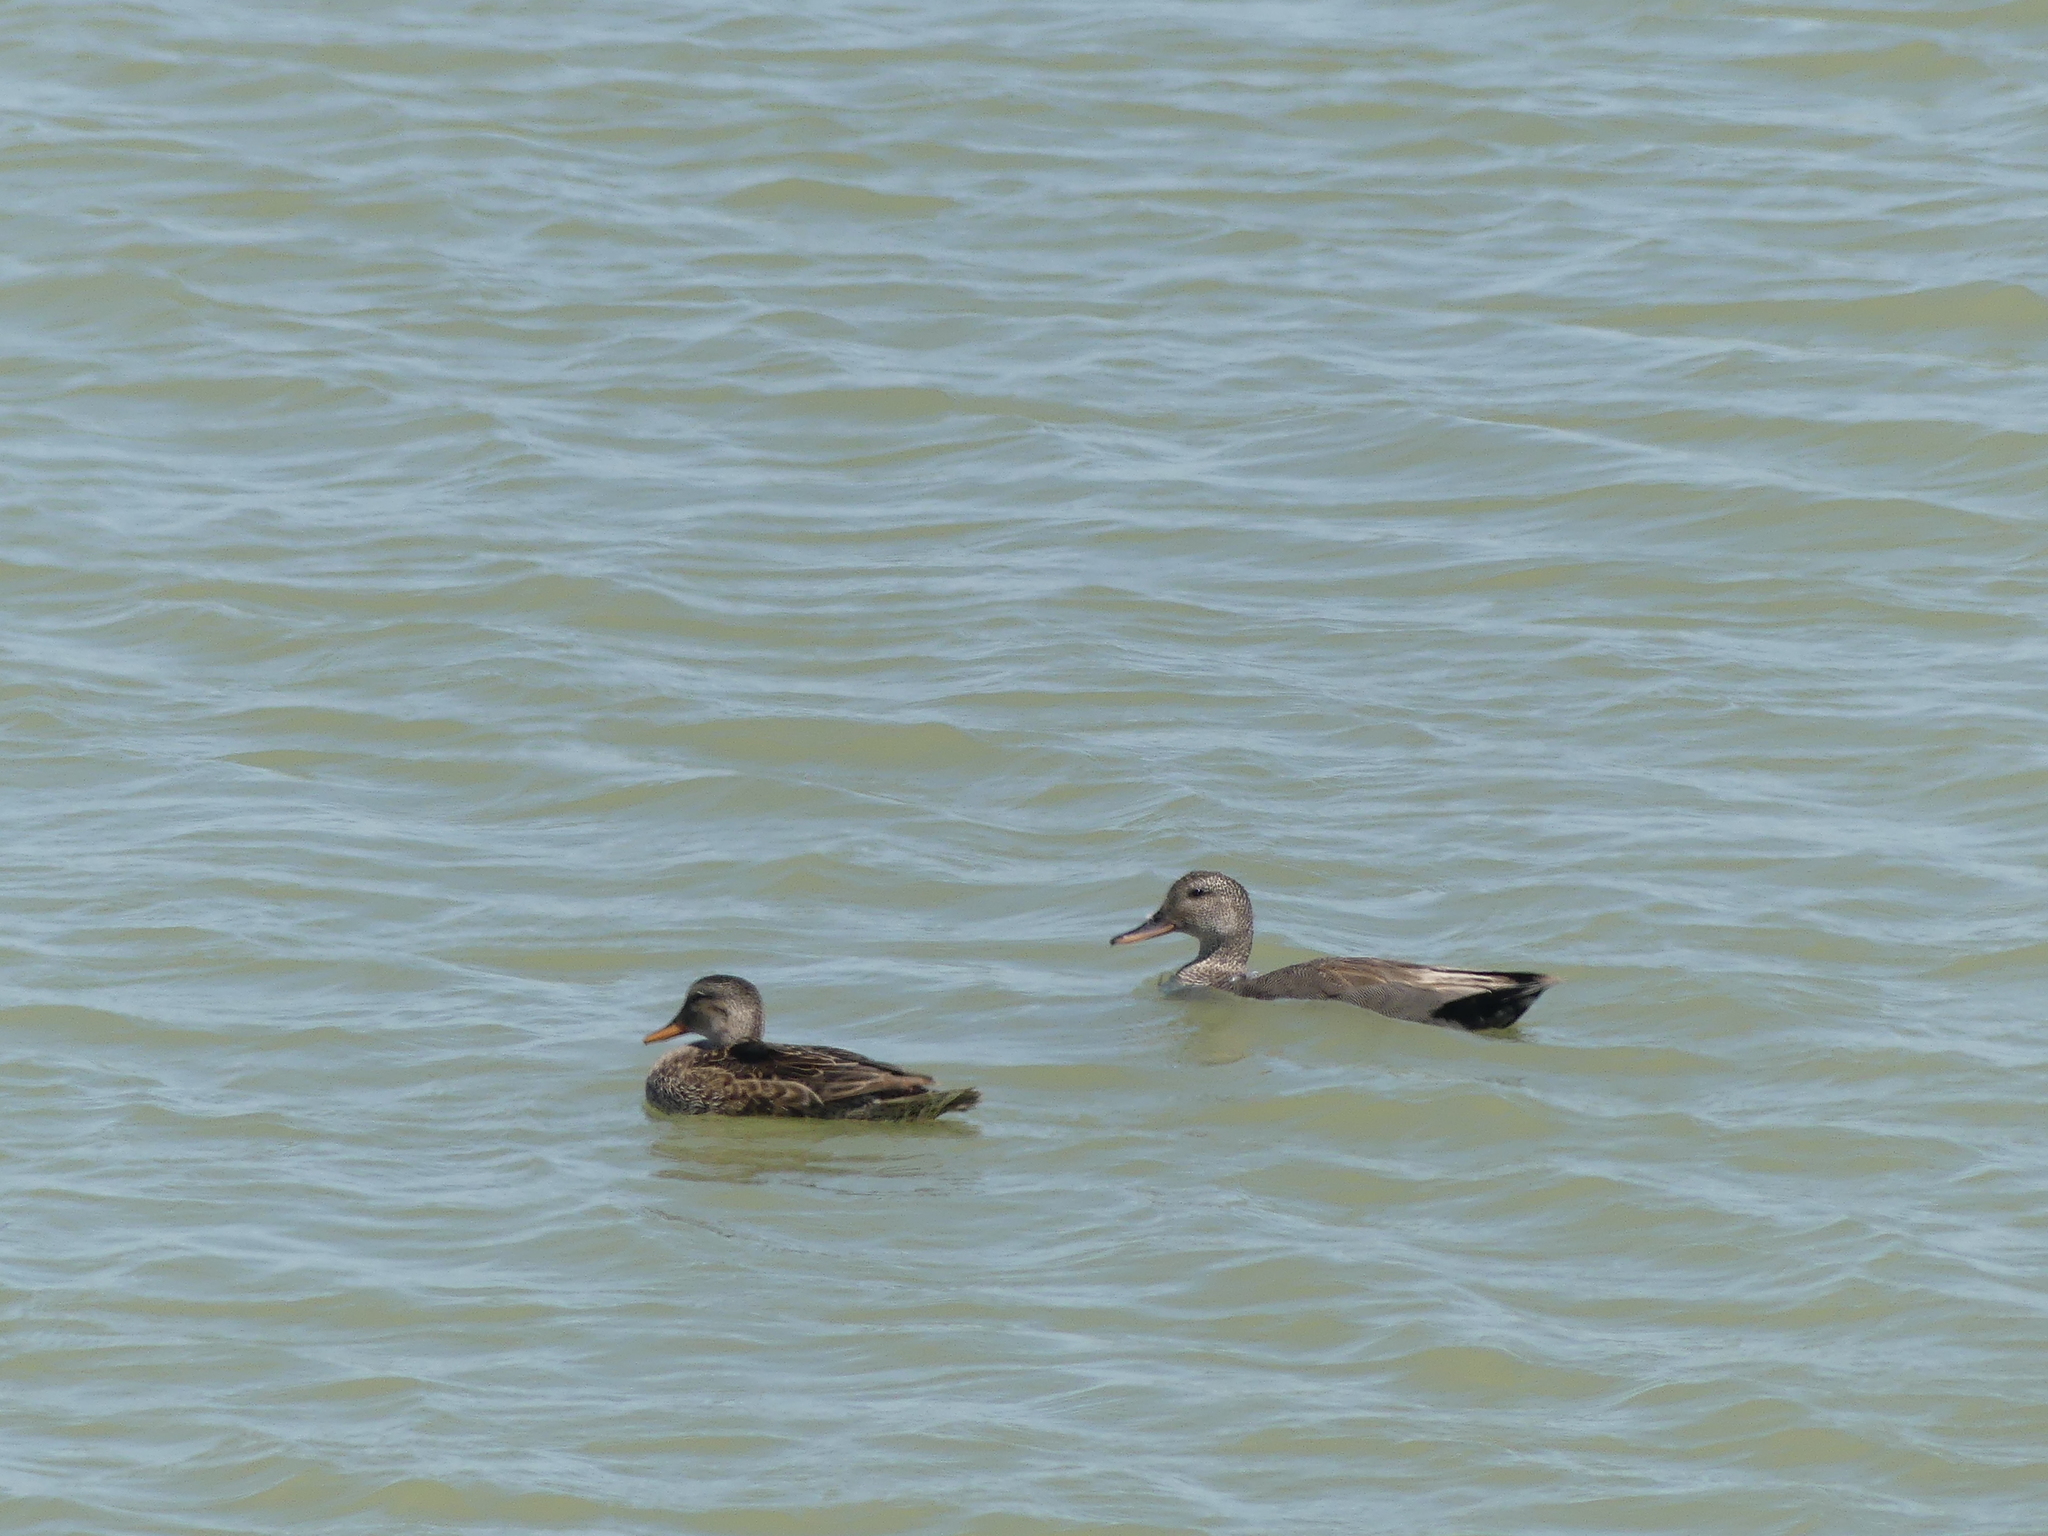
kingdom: Animalia
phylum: Chordata
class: Aves
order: Anseriformes
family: Anatidae
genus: Mareca
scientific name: Mareca strepera
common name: Gadwall
